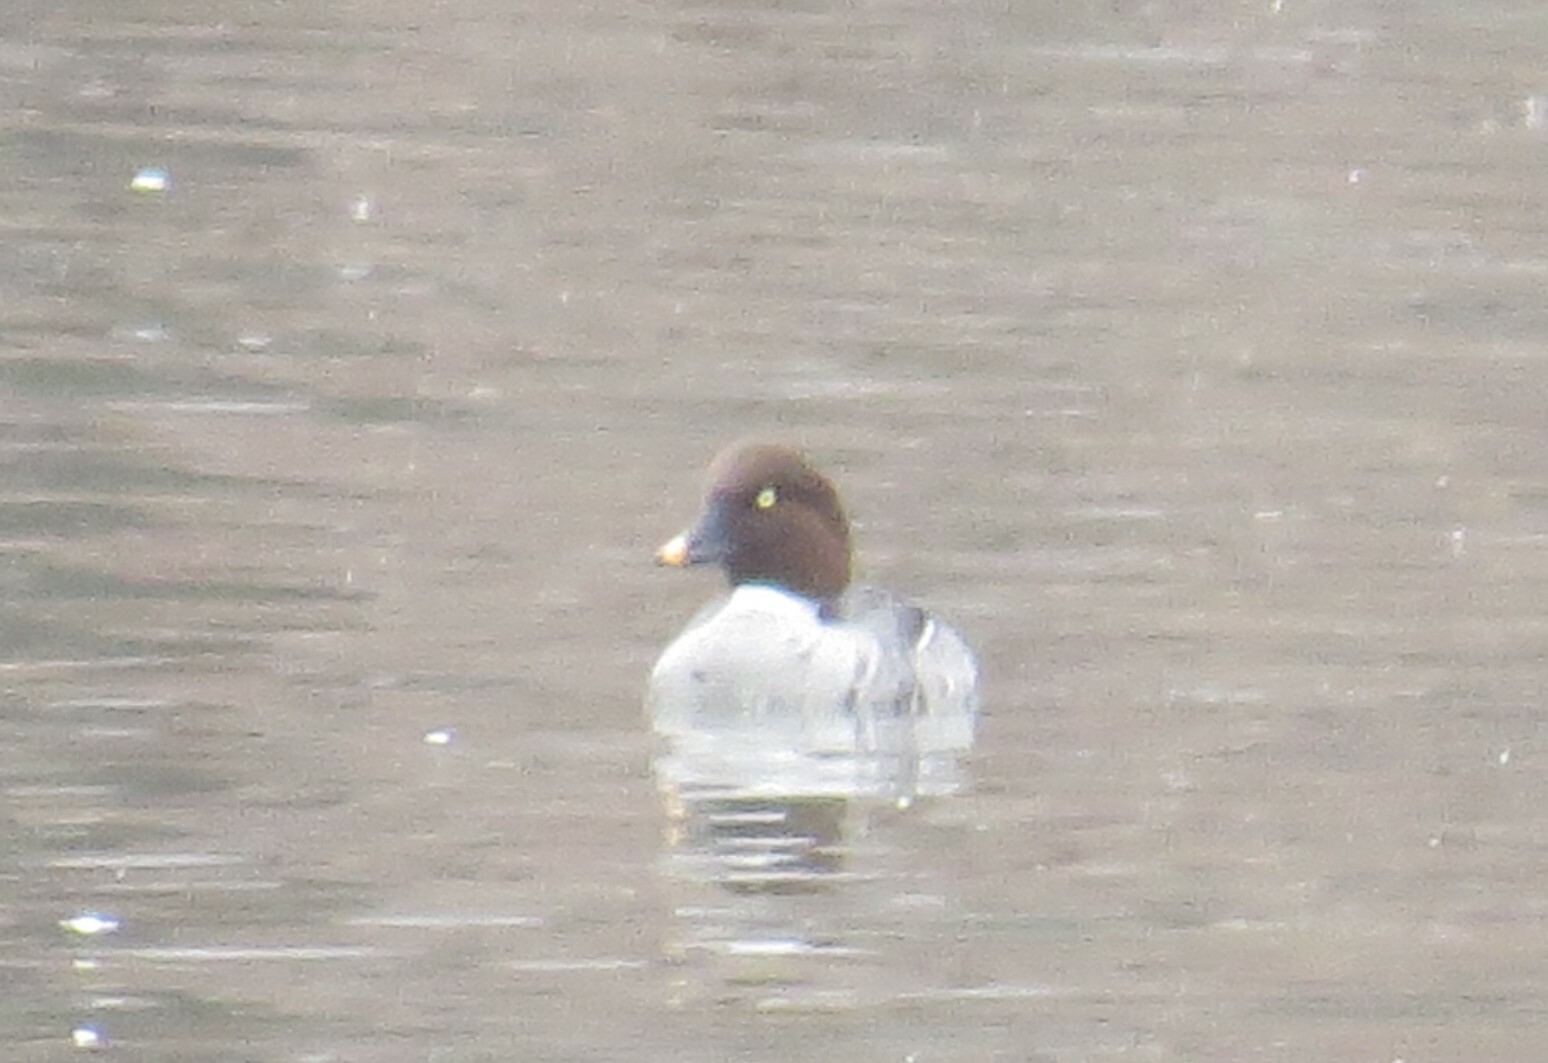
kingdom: Animalia
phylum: Chordata
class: Aves
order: Anseriformes
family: Anatidae
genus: Bucephala
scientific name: Bucephala clangula
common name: Common goldeneye
